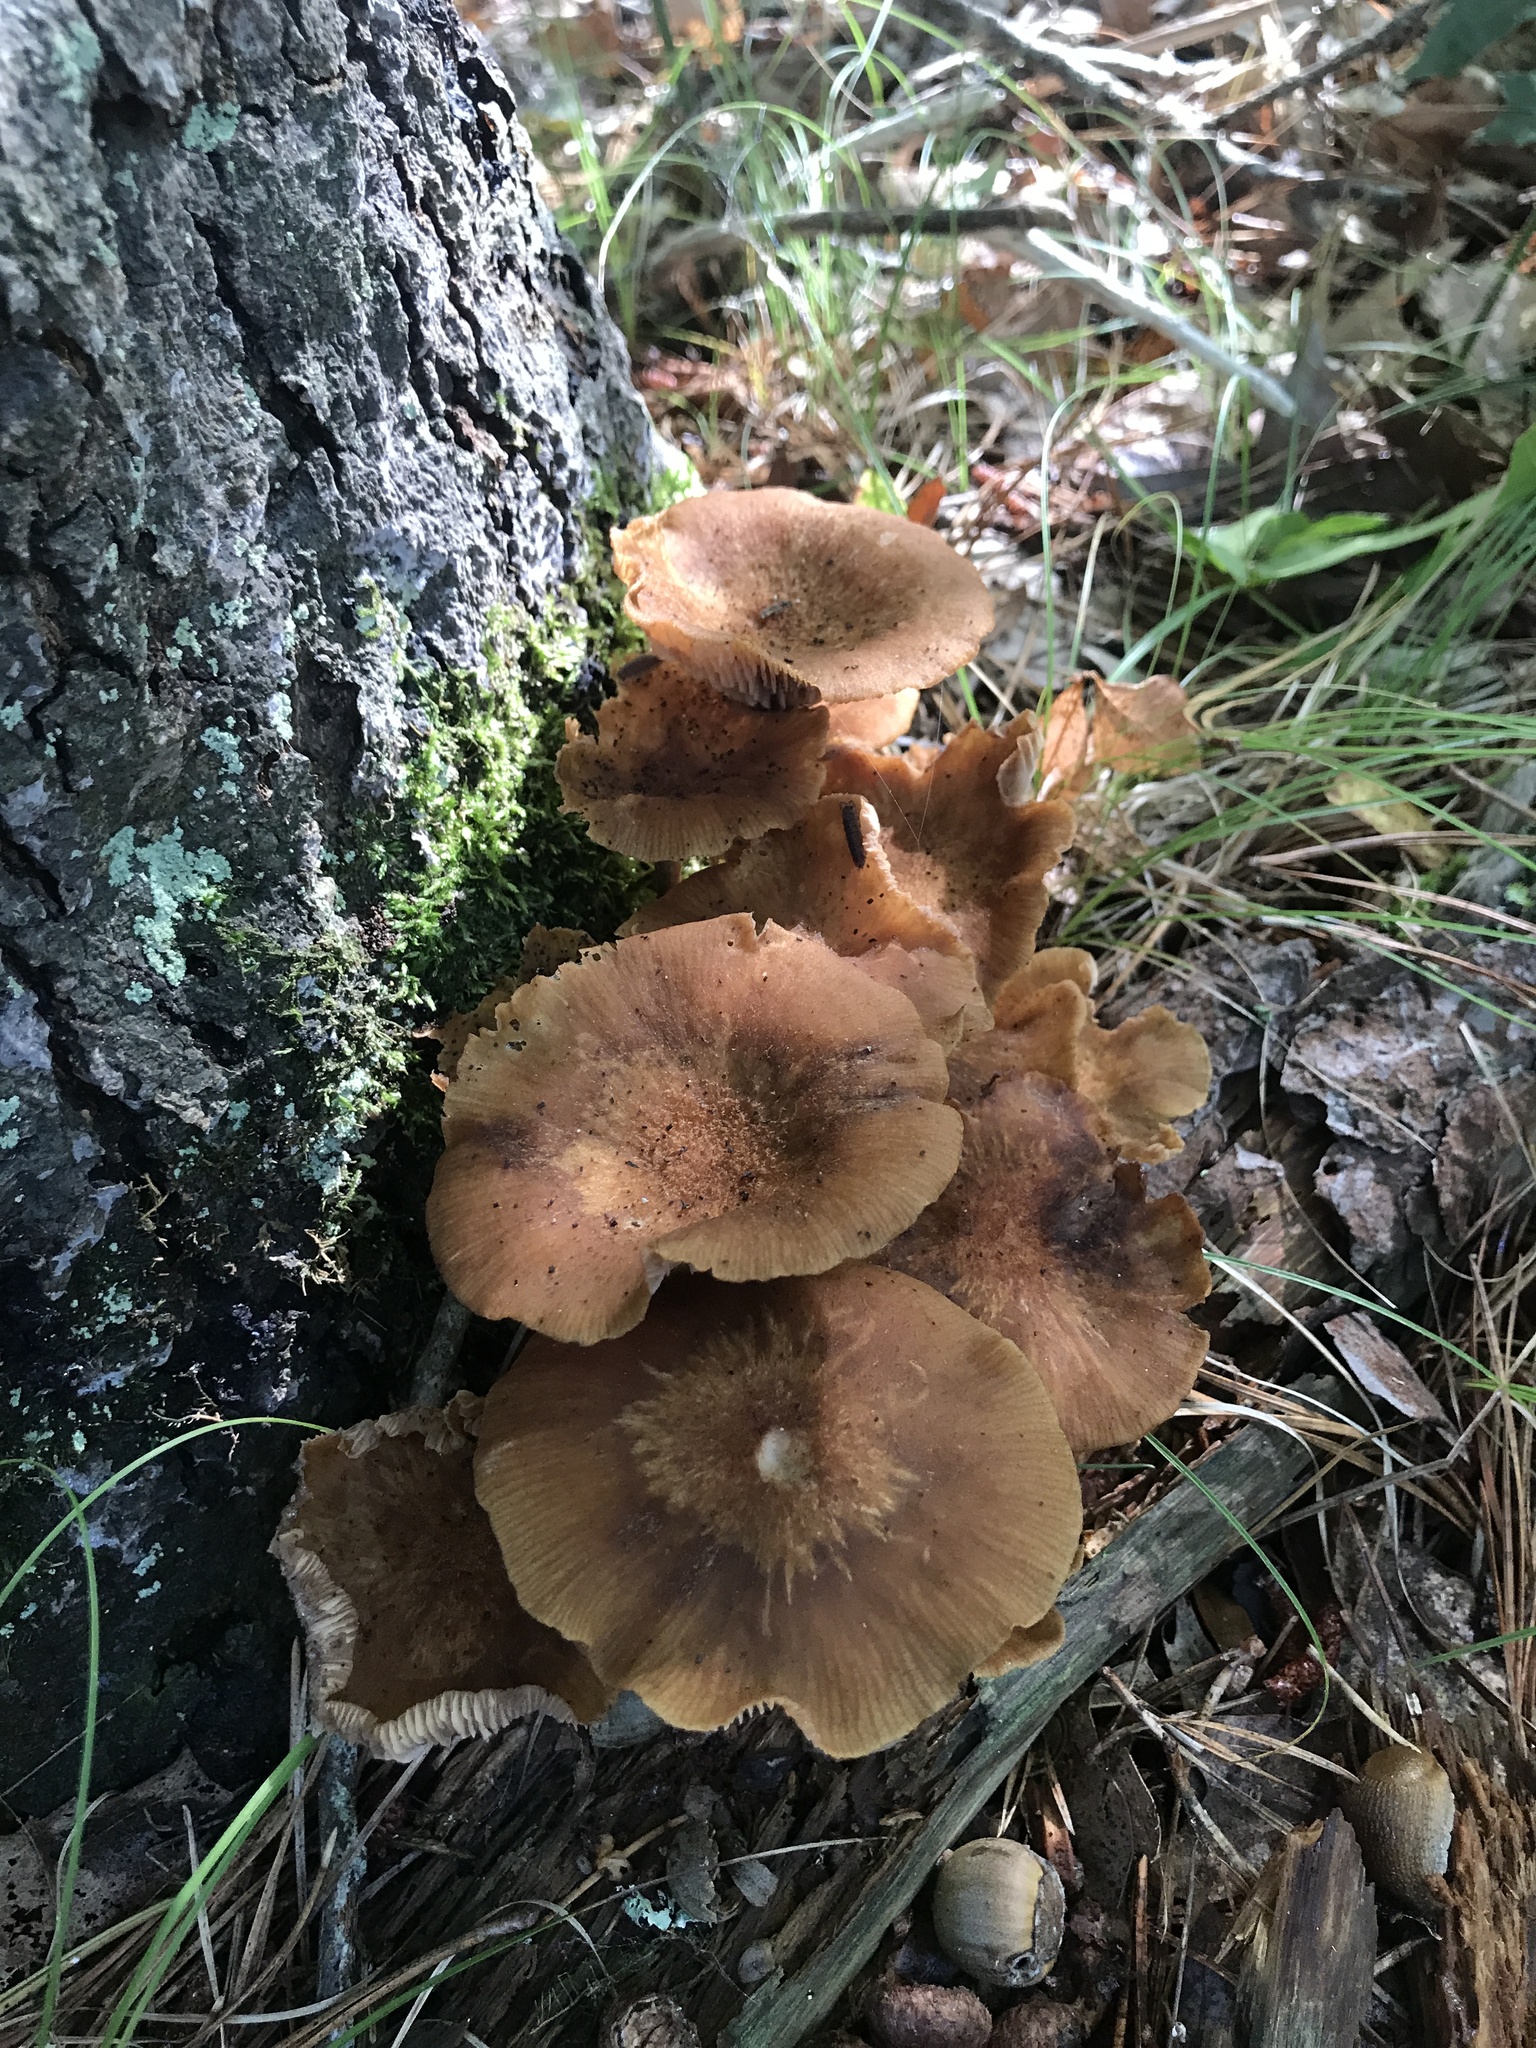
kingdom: Fungi
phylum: Basidiomycota
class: Agaricomycetes
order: Agaricales
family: Physalacriaceae
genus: Desarmillaria
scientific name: Desarmillaria caespitosa
